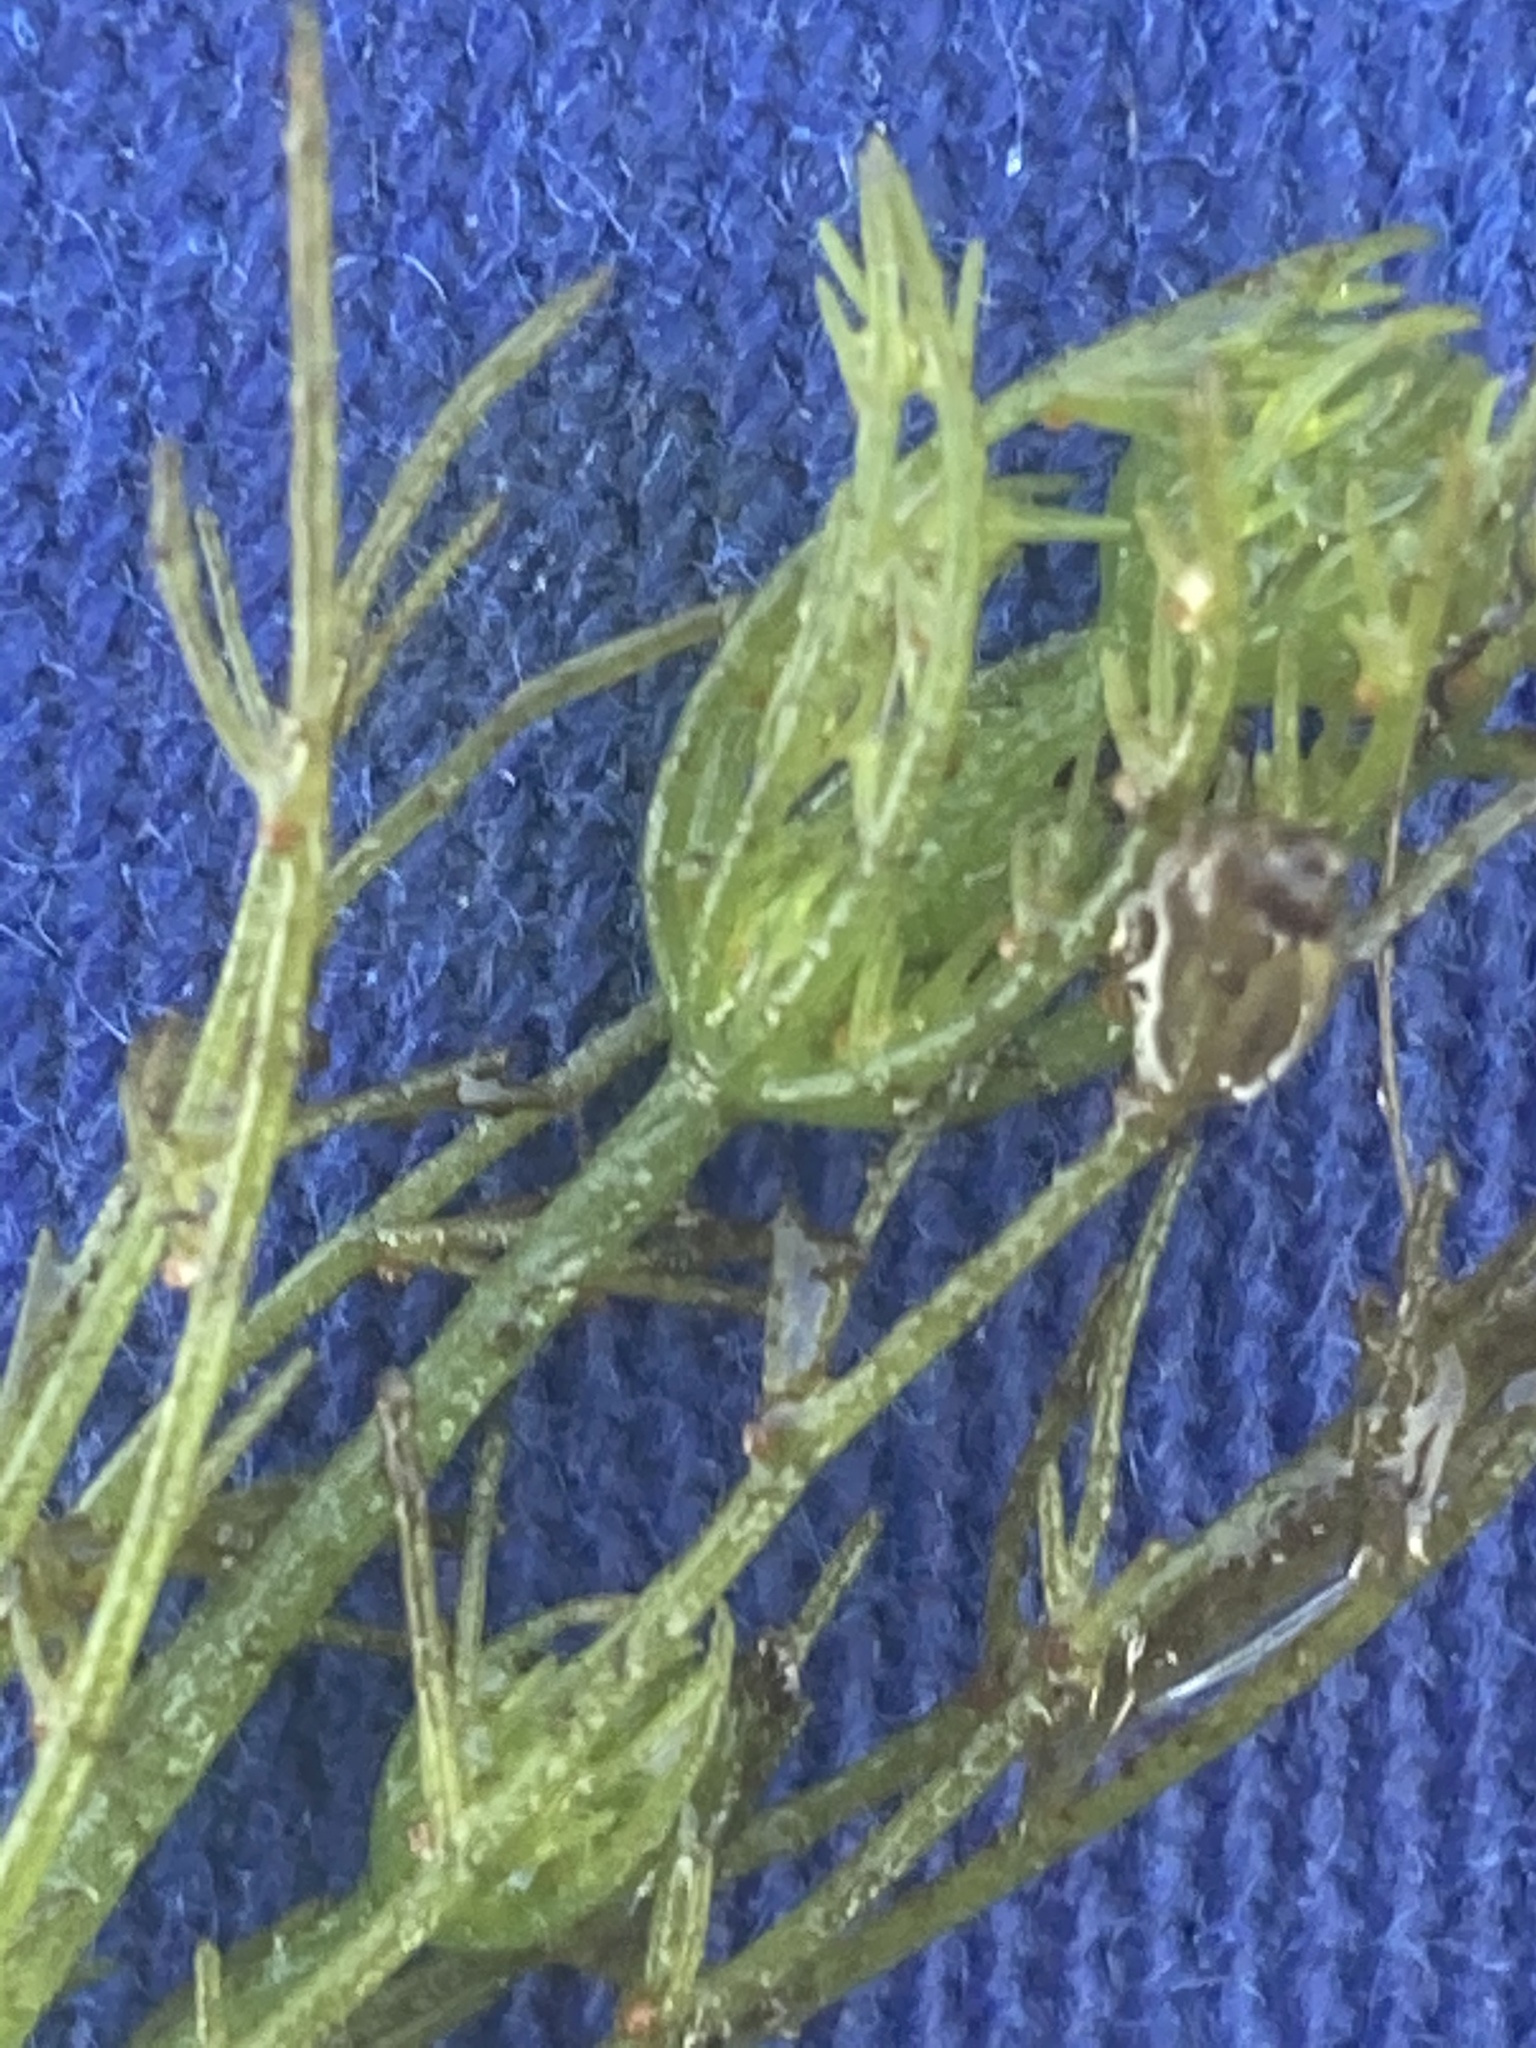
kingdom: Plantae
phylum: Charophyta
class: Charophyceae
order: Charales
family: Characeae
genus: Chara
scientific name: Chara vulgaris
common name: Common stonewort
